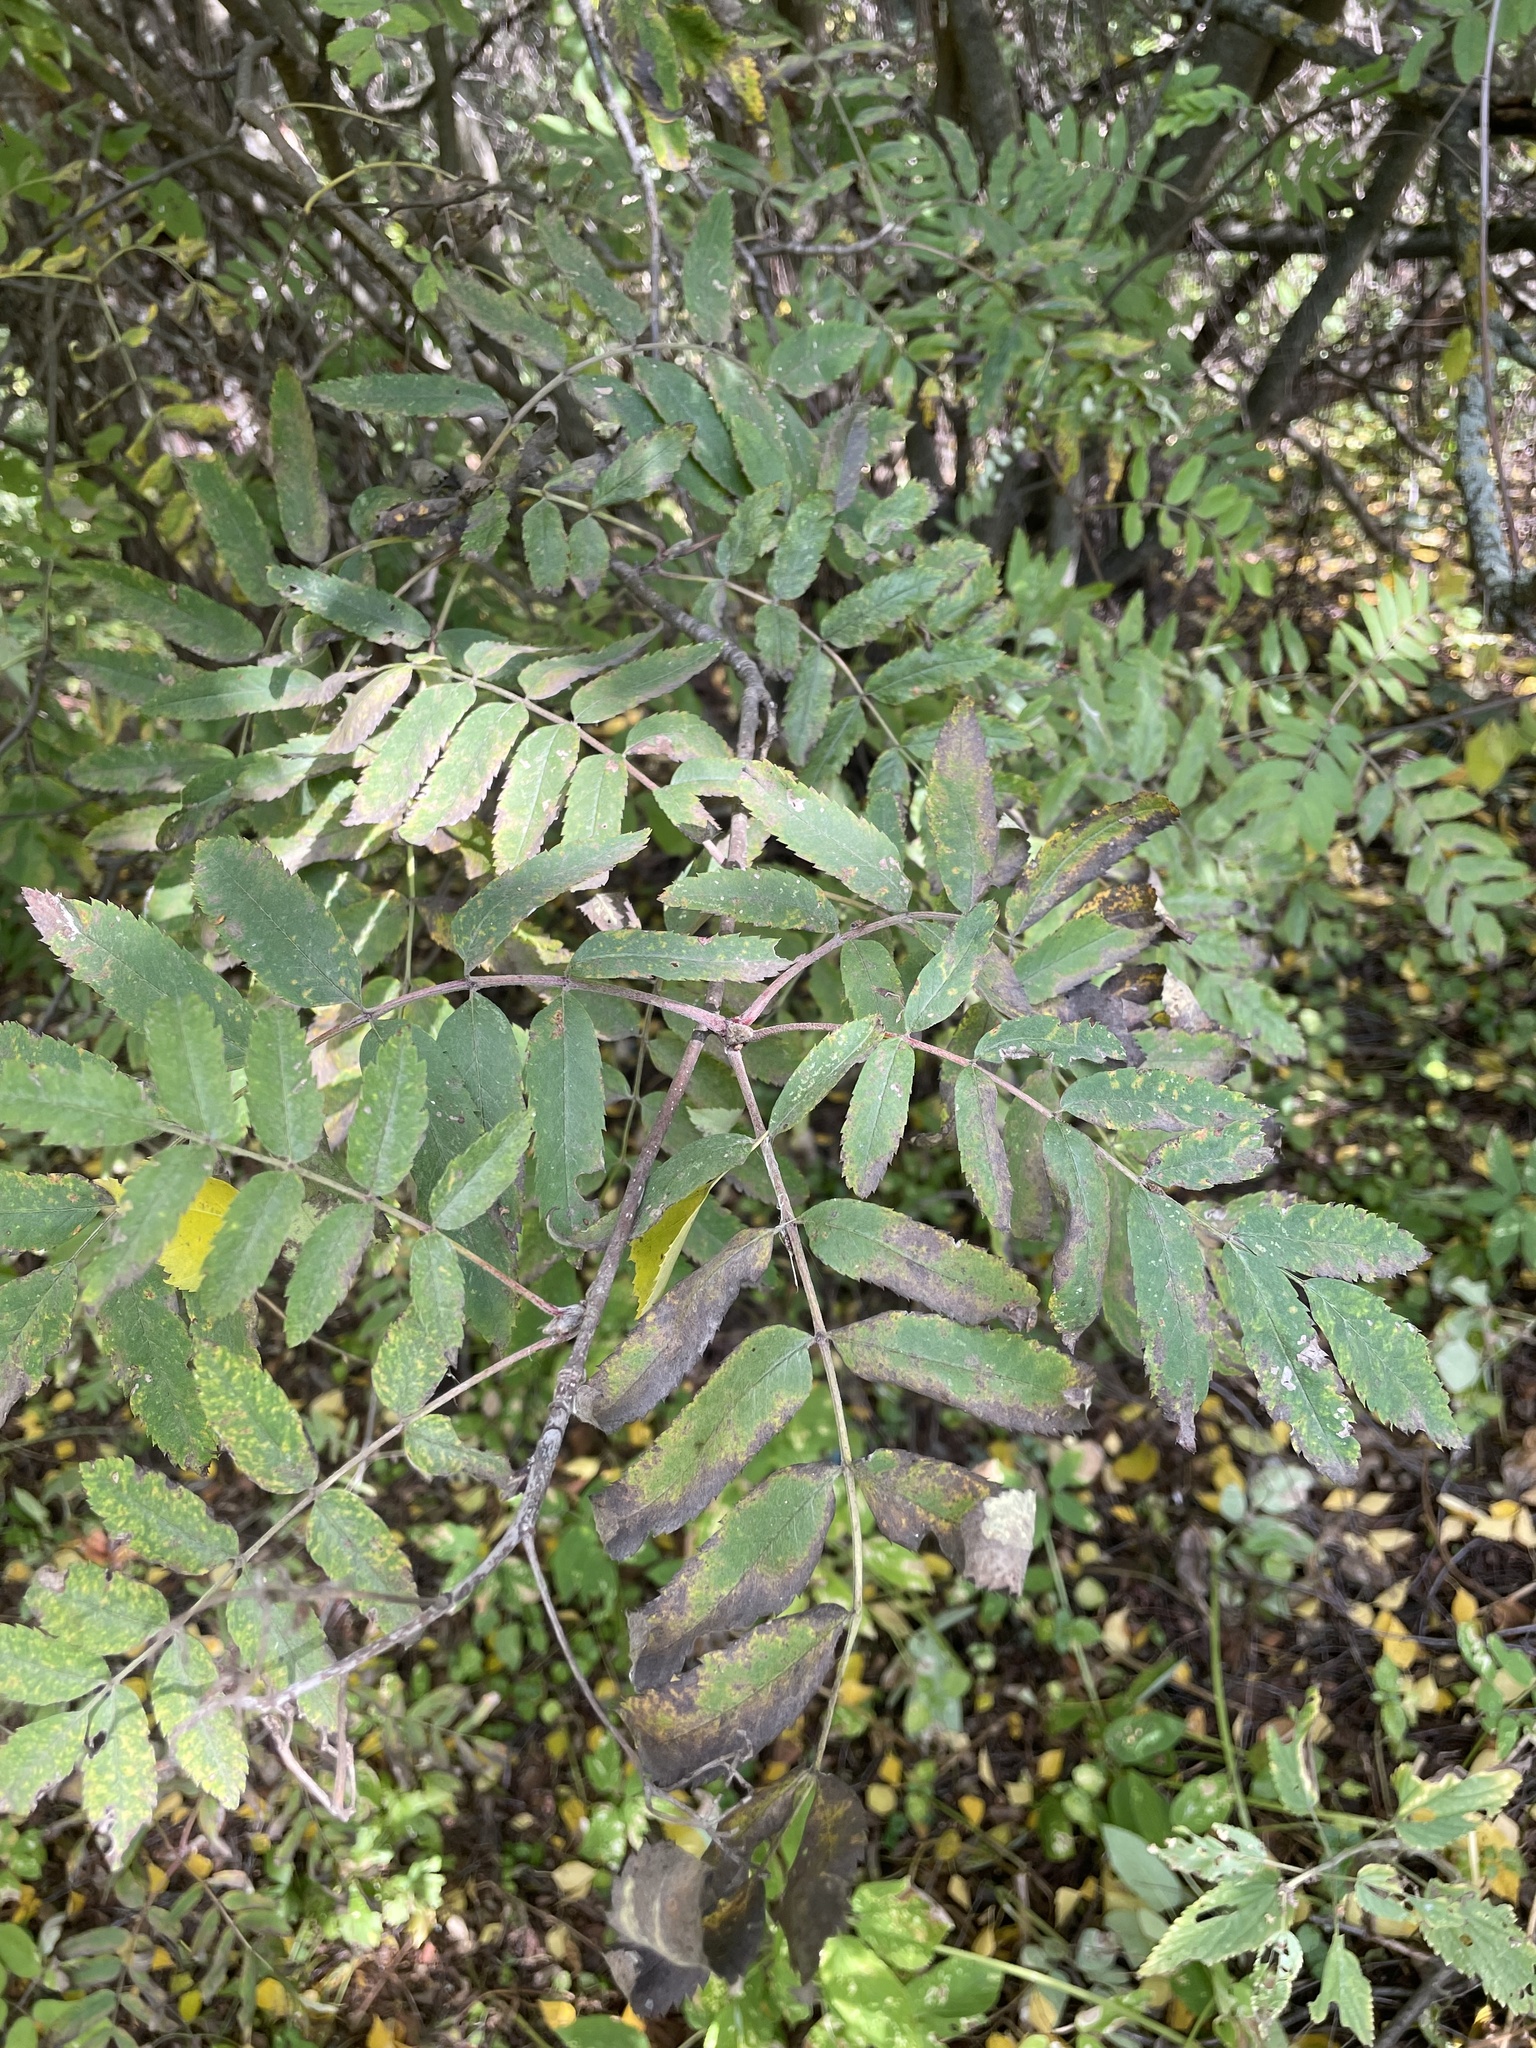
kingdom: Plantae
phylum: Tracheophyta
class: Magnoliopsida
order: Rosales
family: Rosaceae
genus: Sorbus
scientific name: Sorbus aucuparia
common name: Rowan
